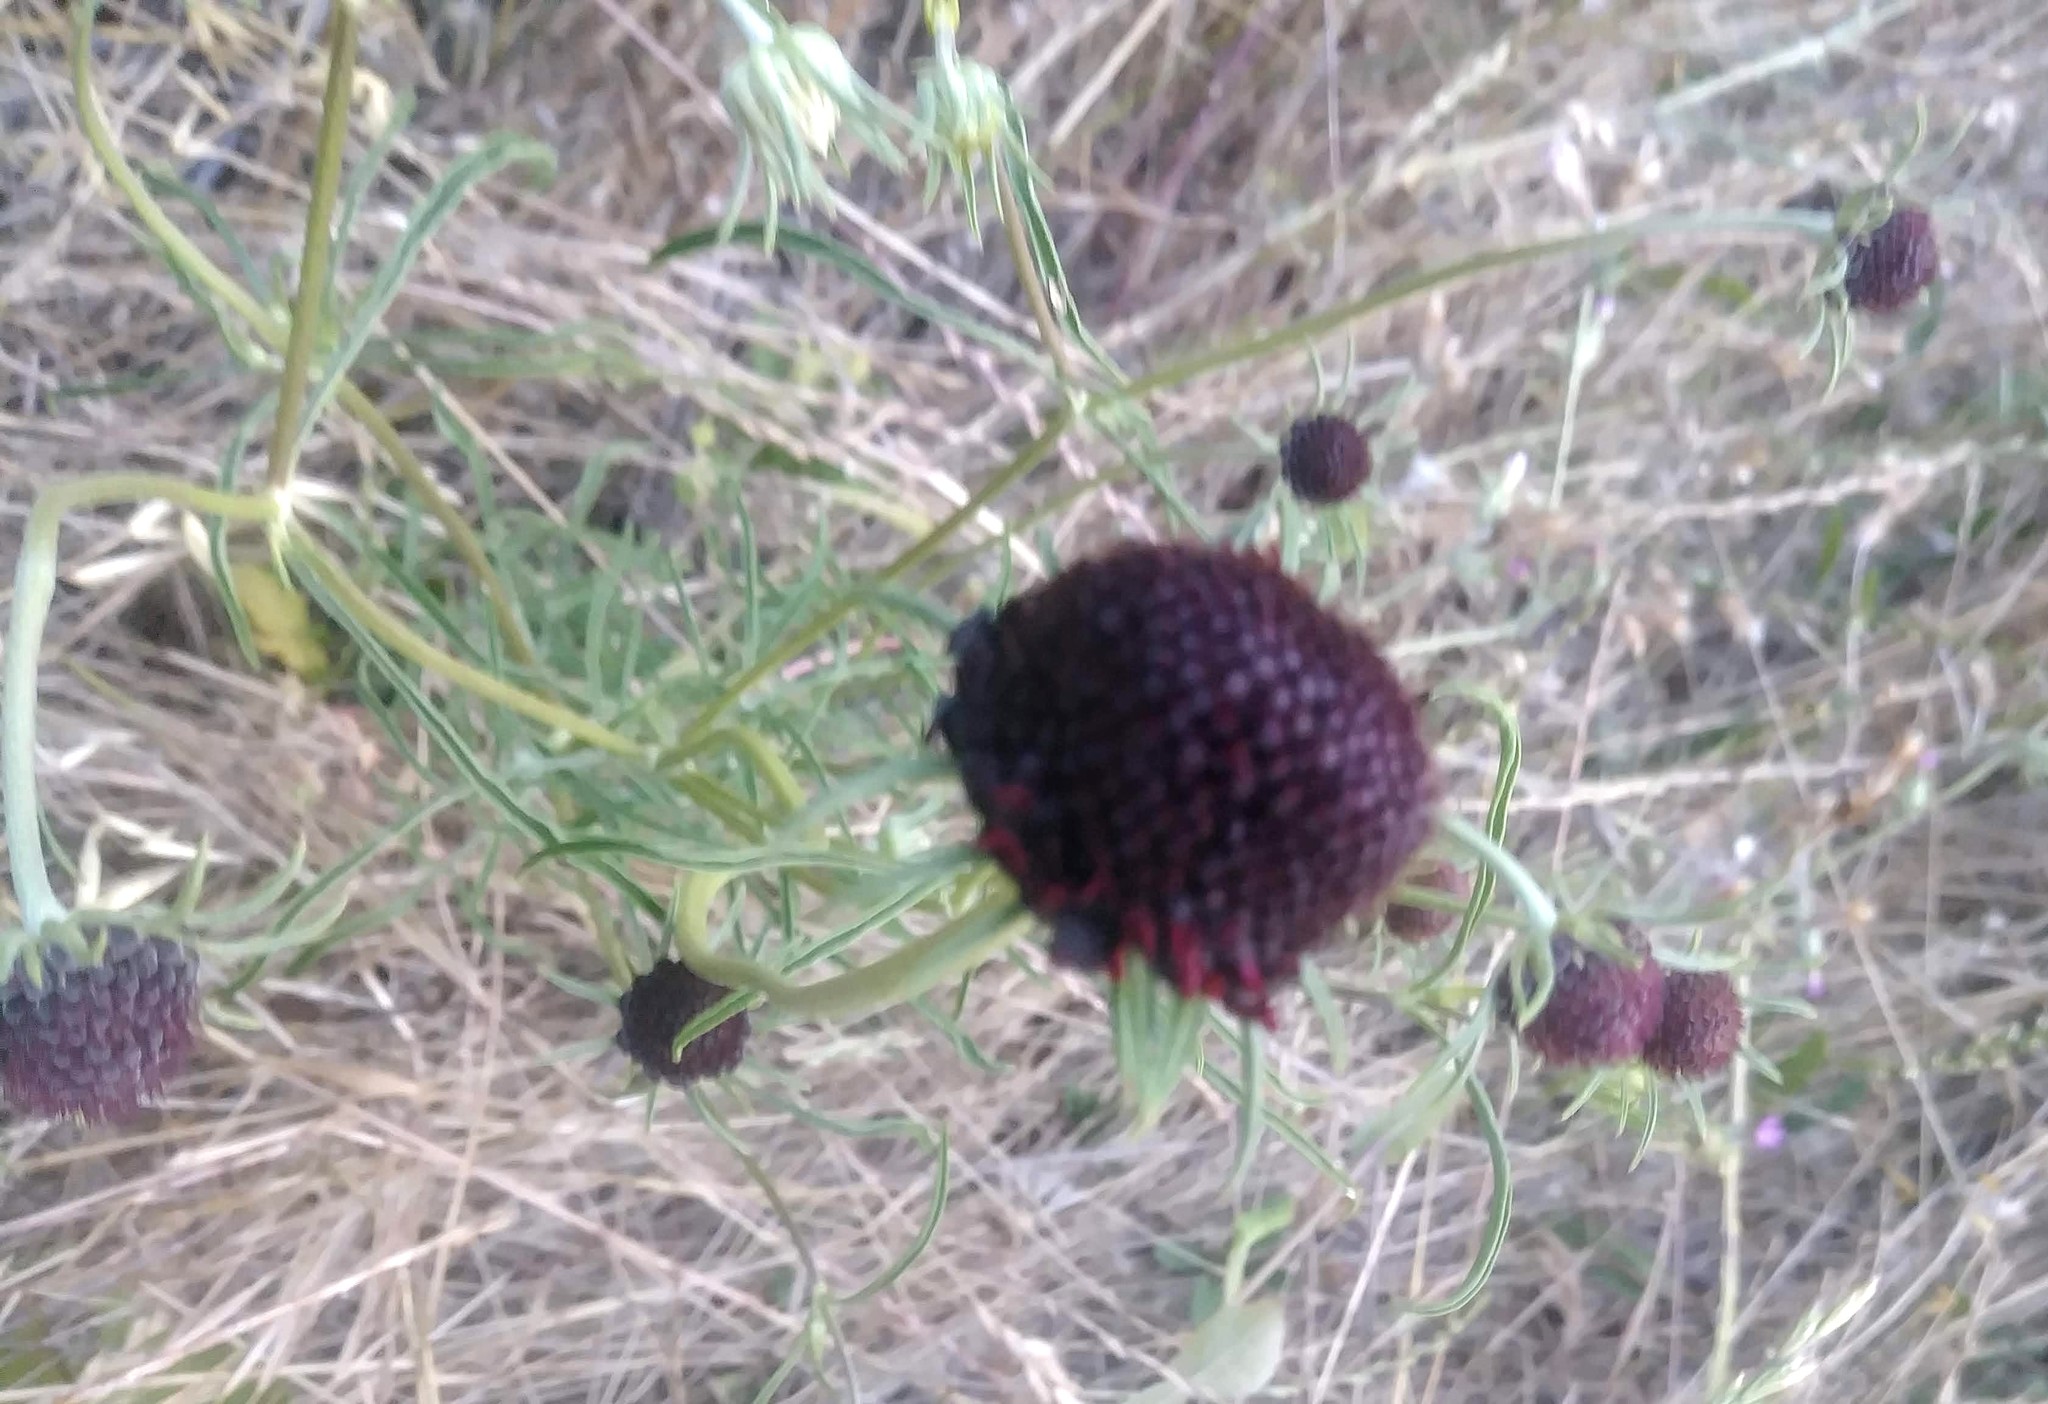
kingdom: Plantae
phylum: Tracheophyta
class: Magnoliopsida
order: Dipsacales
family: Caprifoliaceae
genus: Sixalix
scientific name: Sixalix atropurpurea
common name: Sweet scabious
